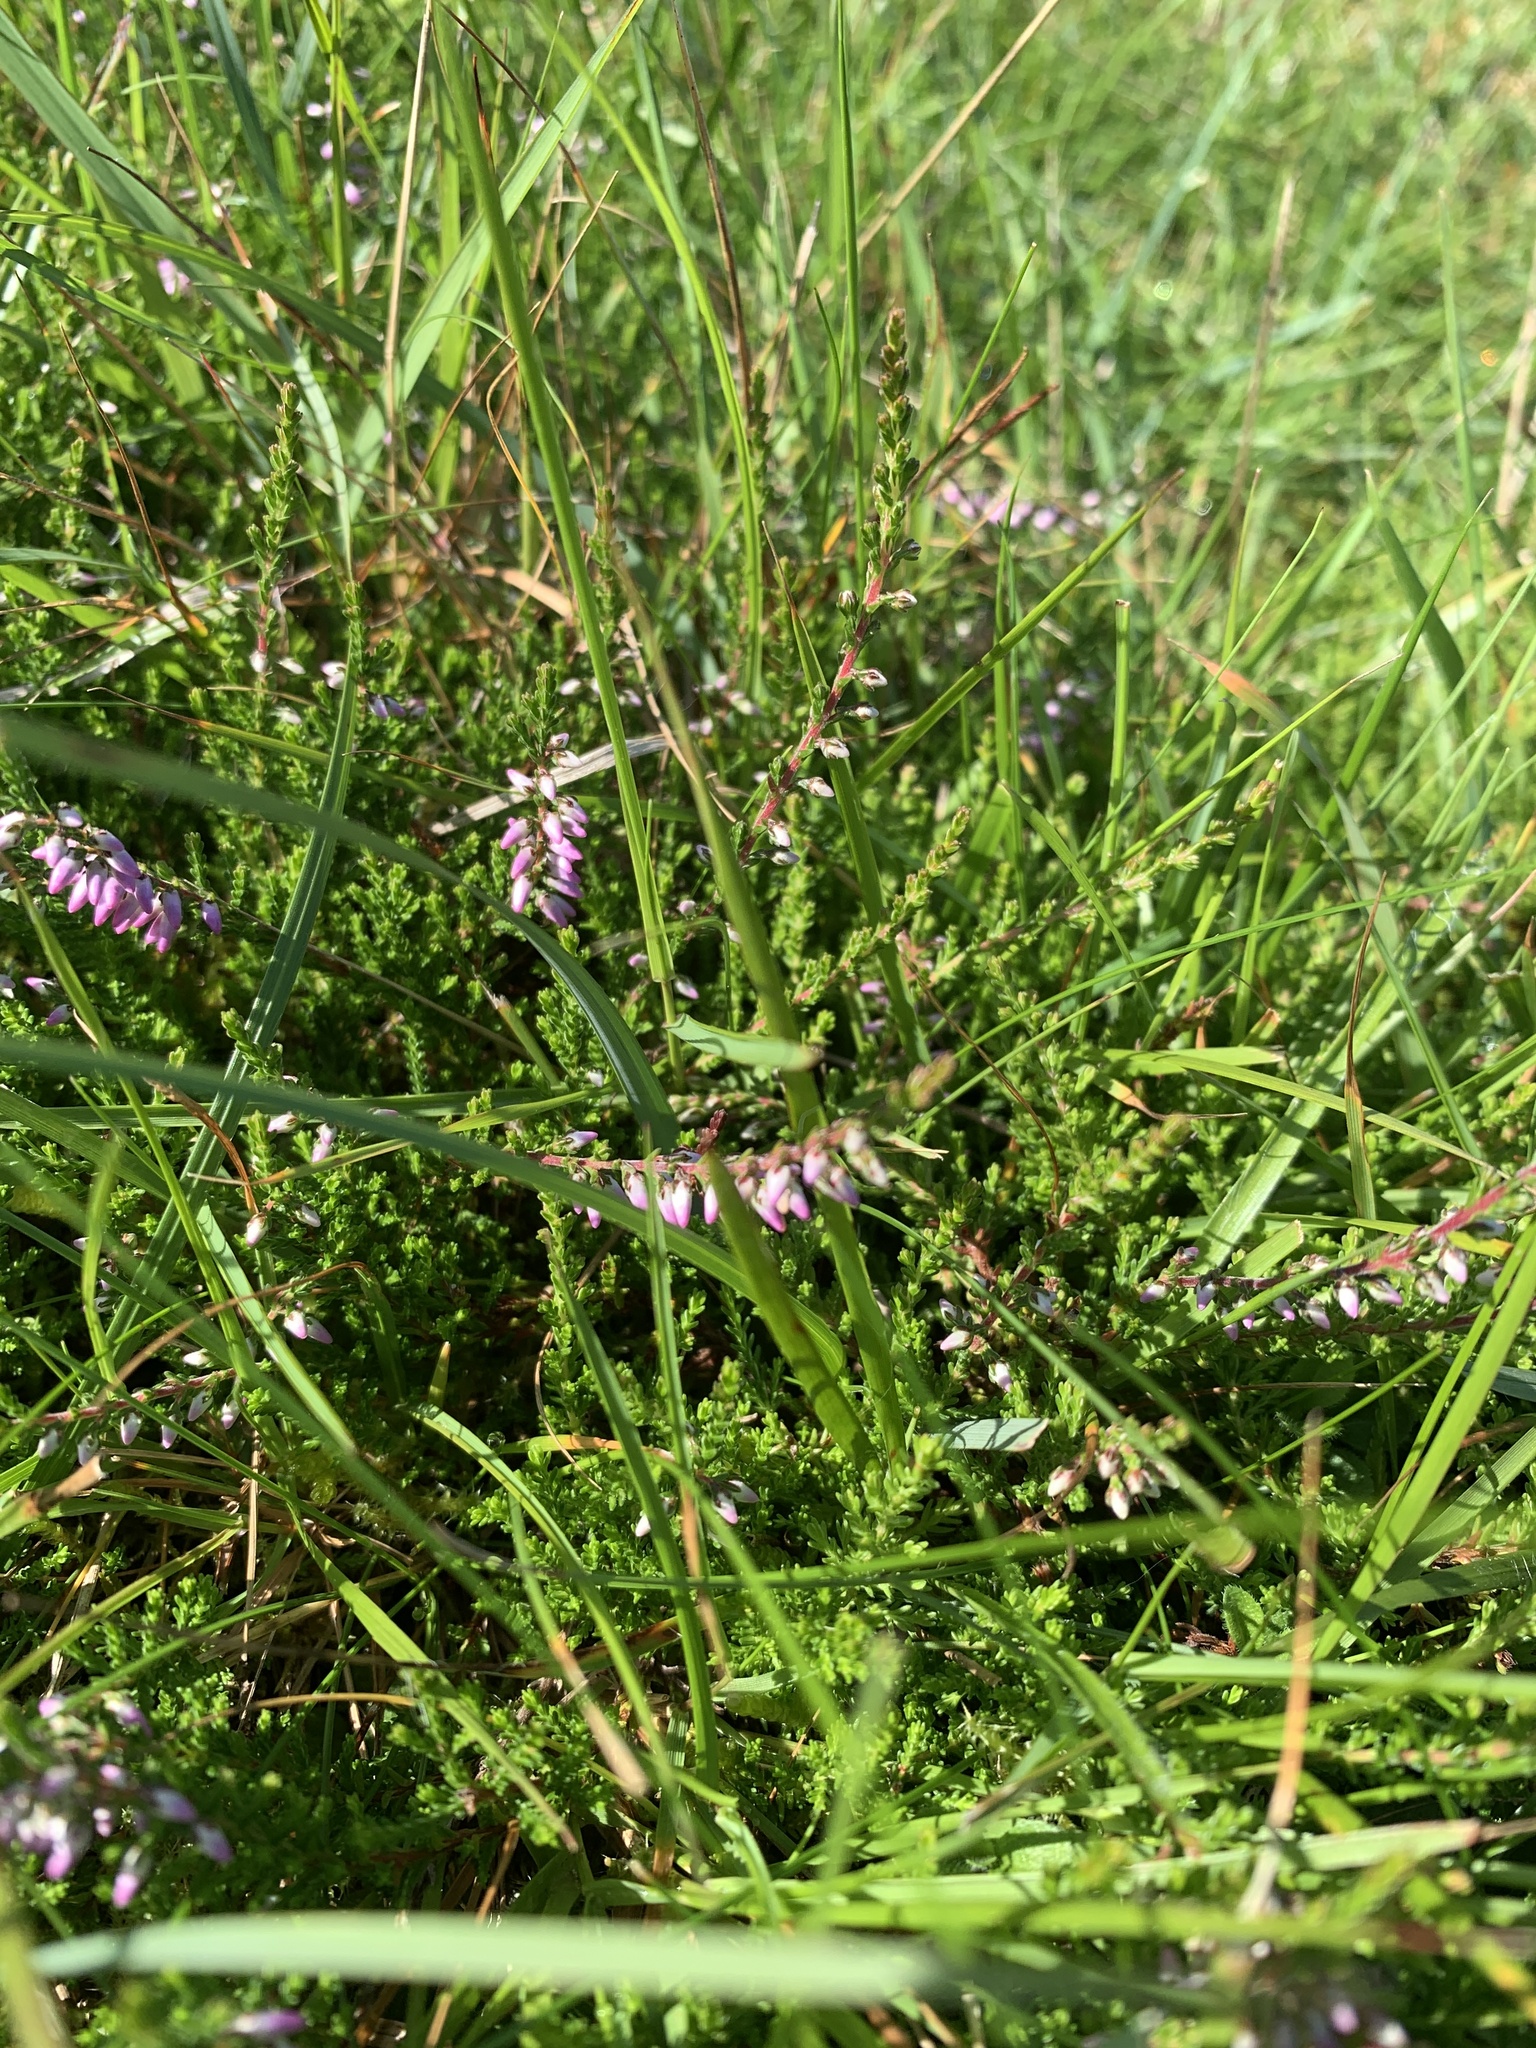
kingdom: Plantae
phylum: Tracheophyta
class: Magnoliopsida
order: Ericales
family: Ericaceae
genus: Calluna
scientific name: Calluna vulgaris
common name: Heather
